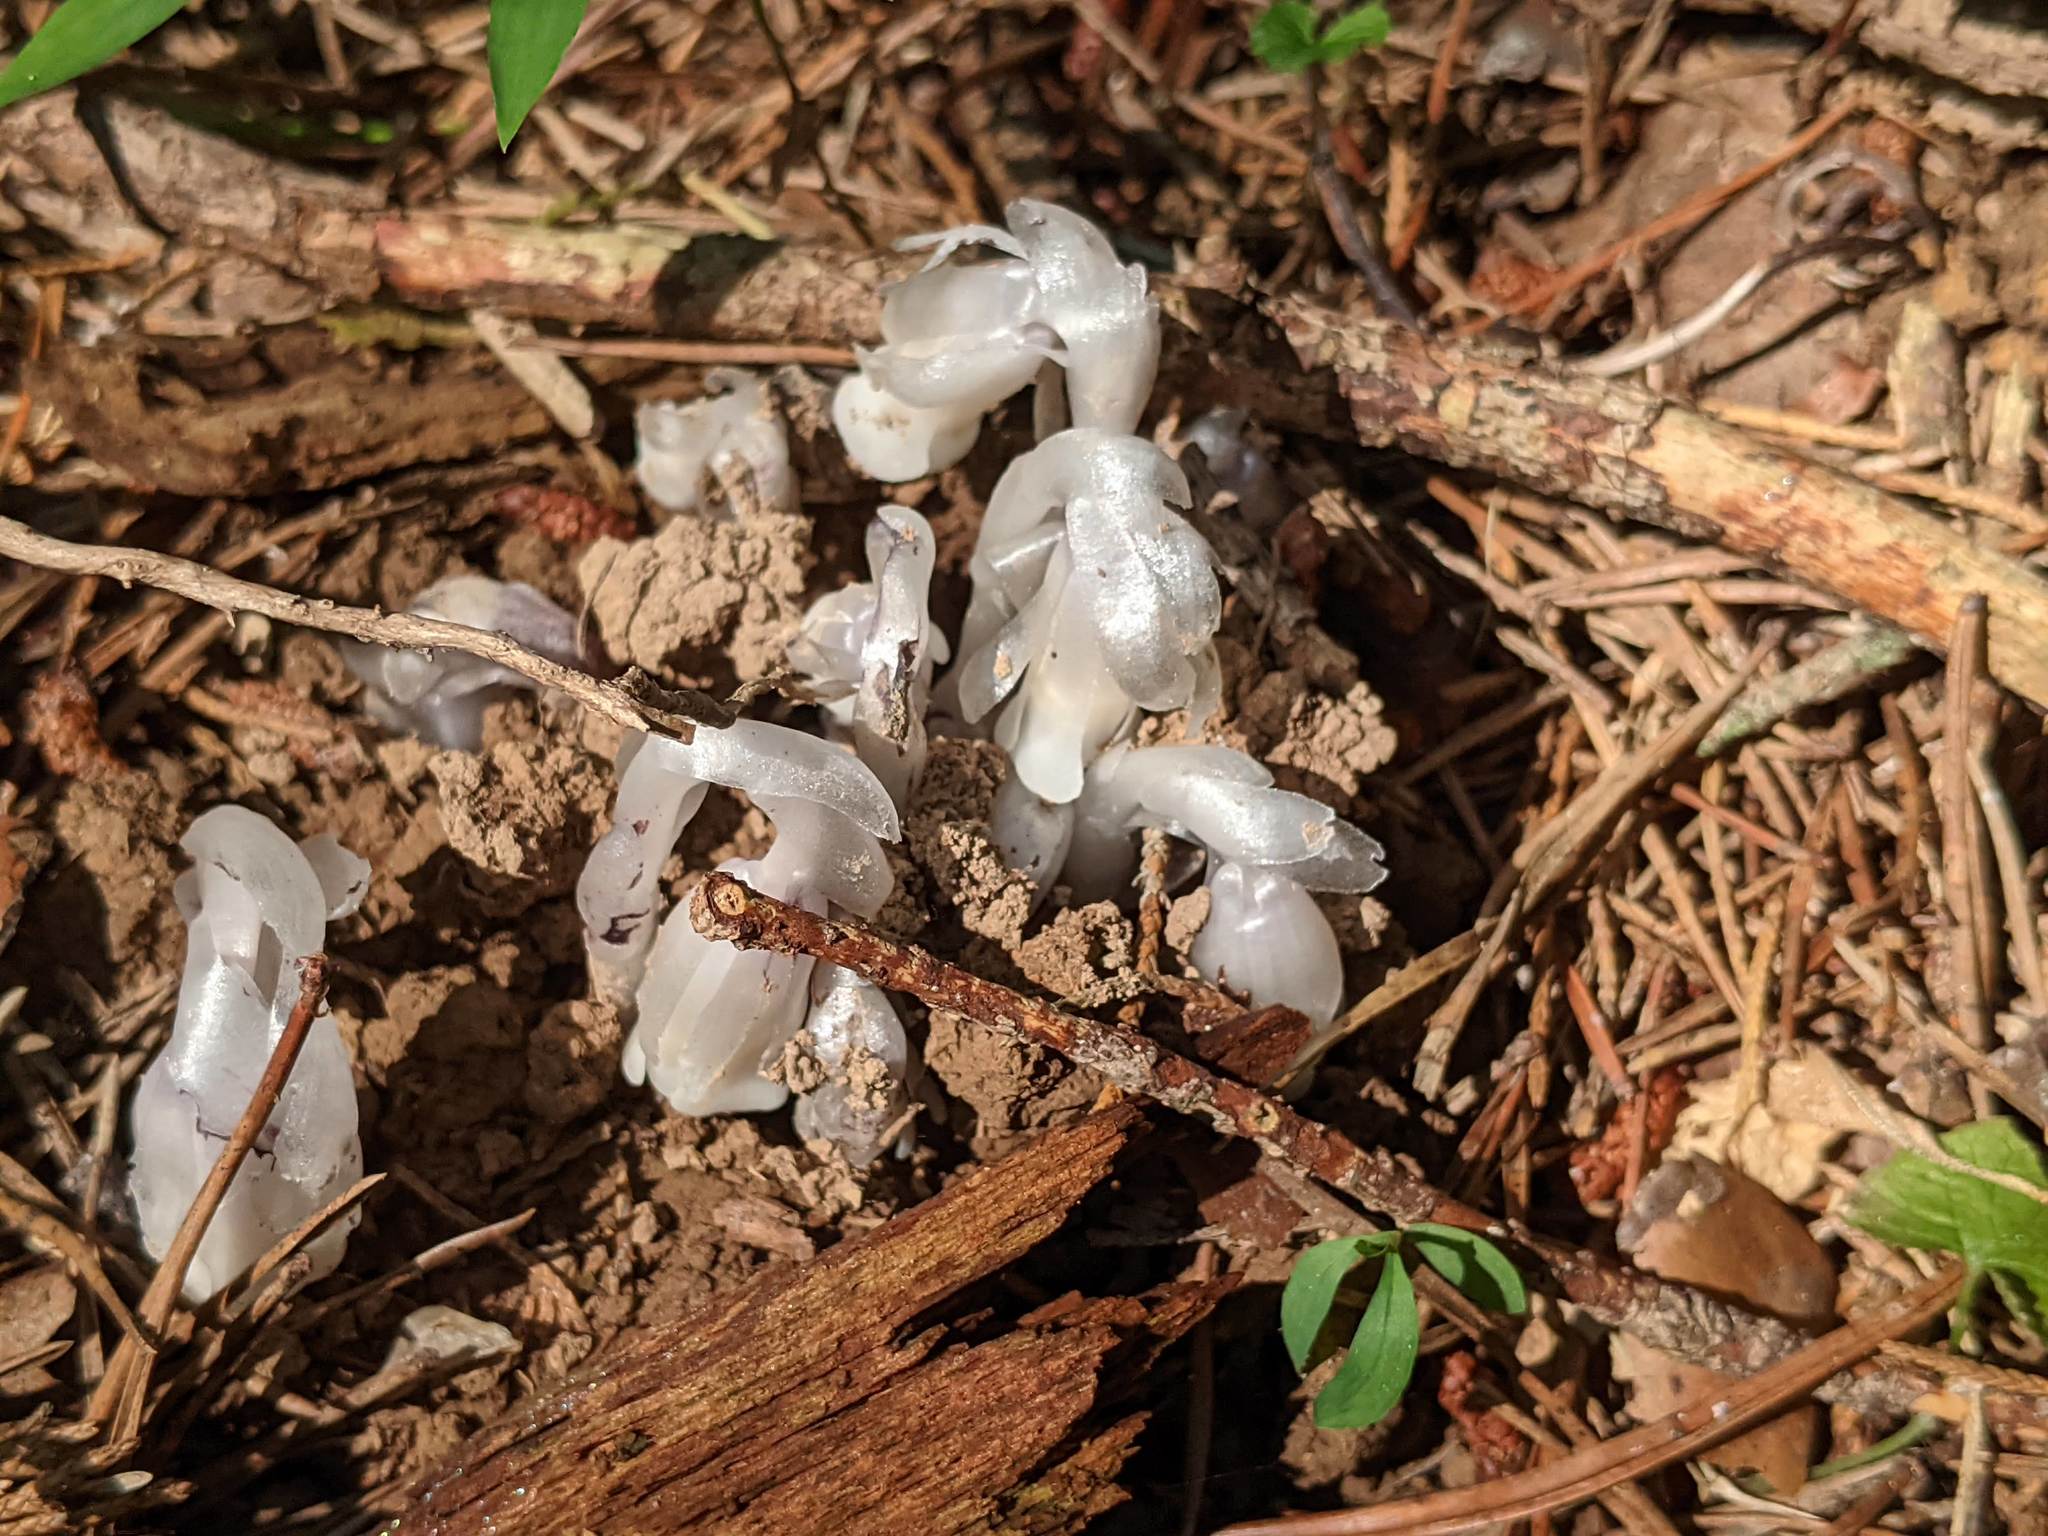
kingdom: Plantae
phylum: Tracheophyta
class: Magnoliopsida
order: Ericales
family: Ericaceae
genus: Monotropa
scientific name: Monotropa uniflora
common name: Convulsion root
